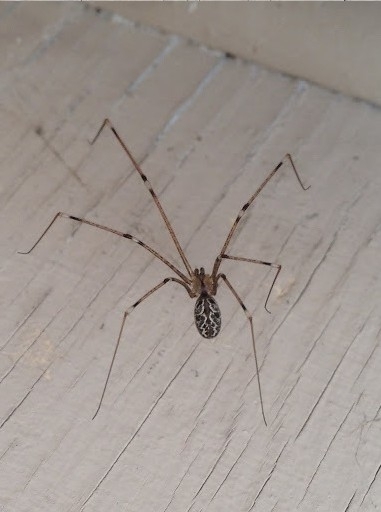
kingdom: Animalia
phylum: Arthropoda
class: Arachnida
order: Araneae
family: Pholcidae
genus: Holocnemus
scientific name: Holocnemus pluchei
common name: Marbled cellar spider
